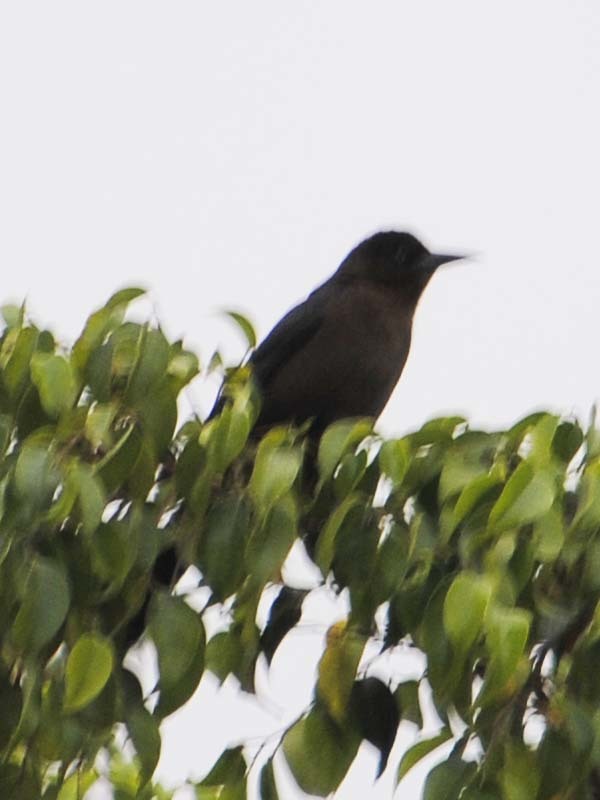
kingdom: Animalia
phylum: Chordata
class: Aves
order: Passeriformes
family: Icteridae
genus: Quiscalus
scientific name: Quiscalus mexicanus
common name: Great-tailed grackle
